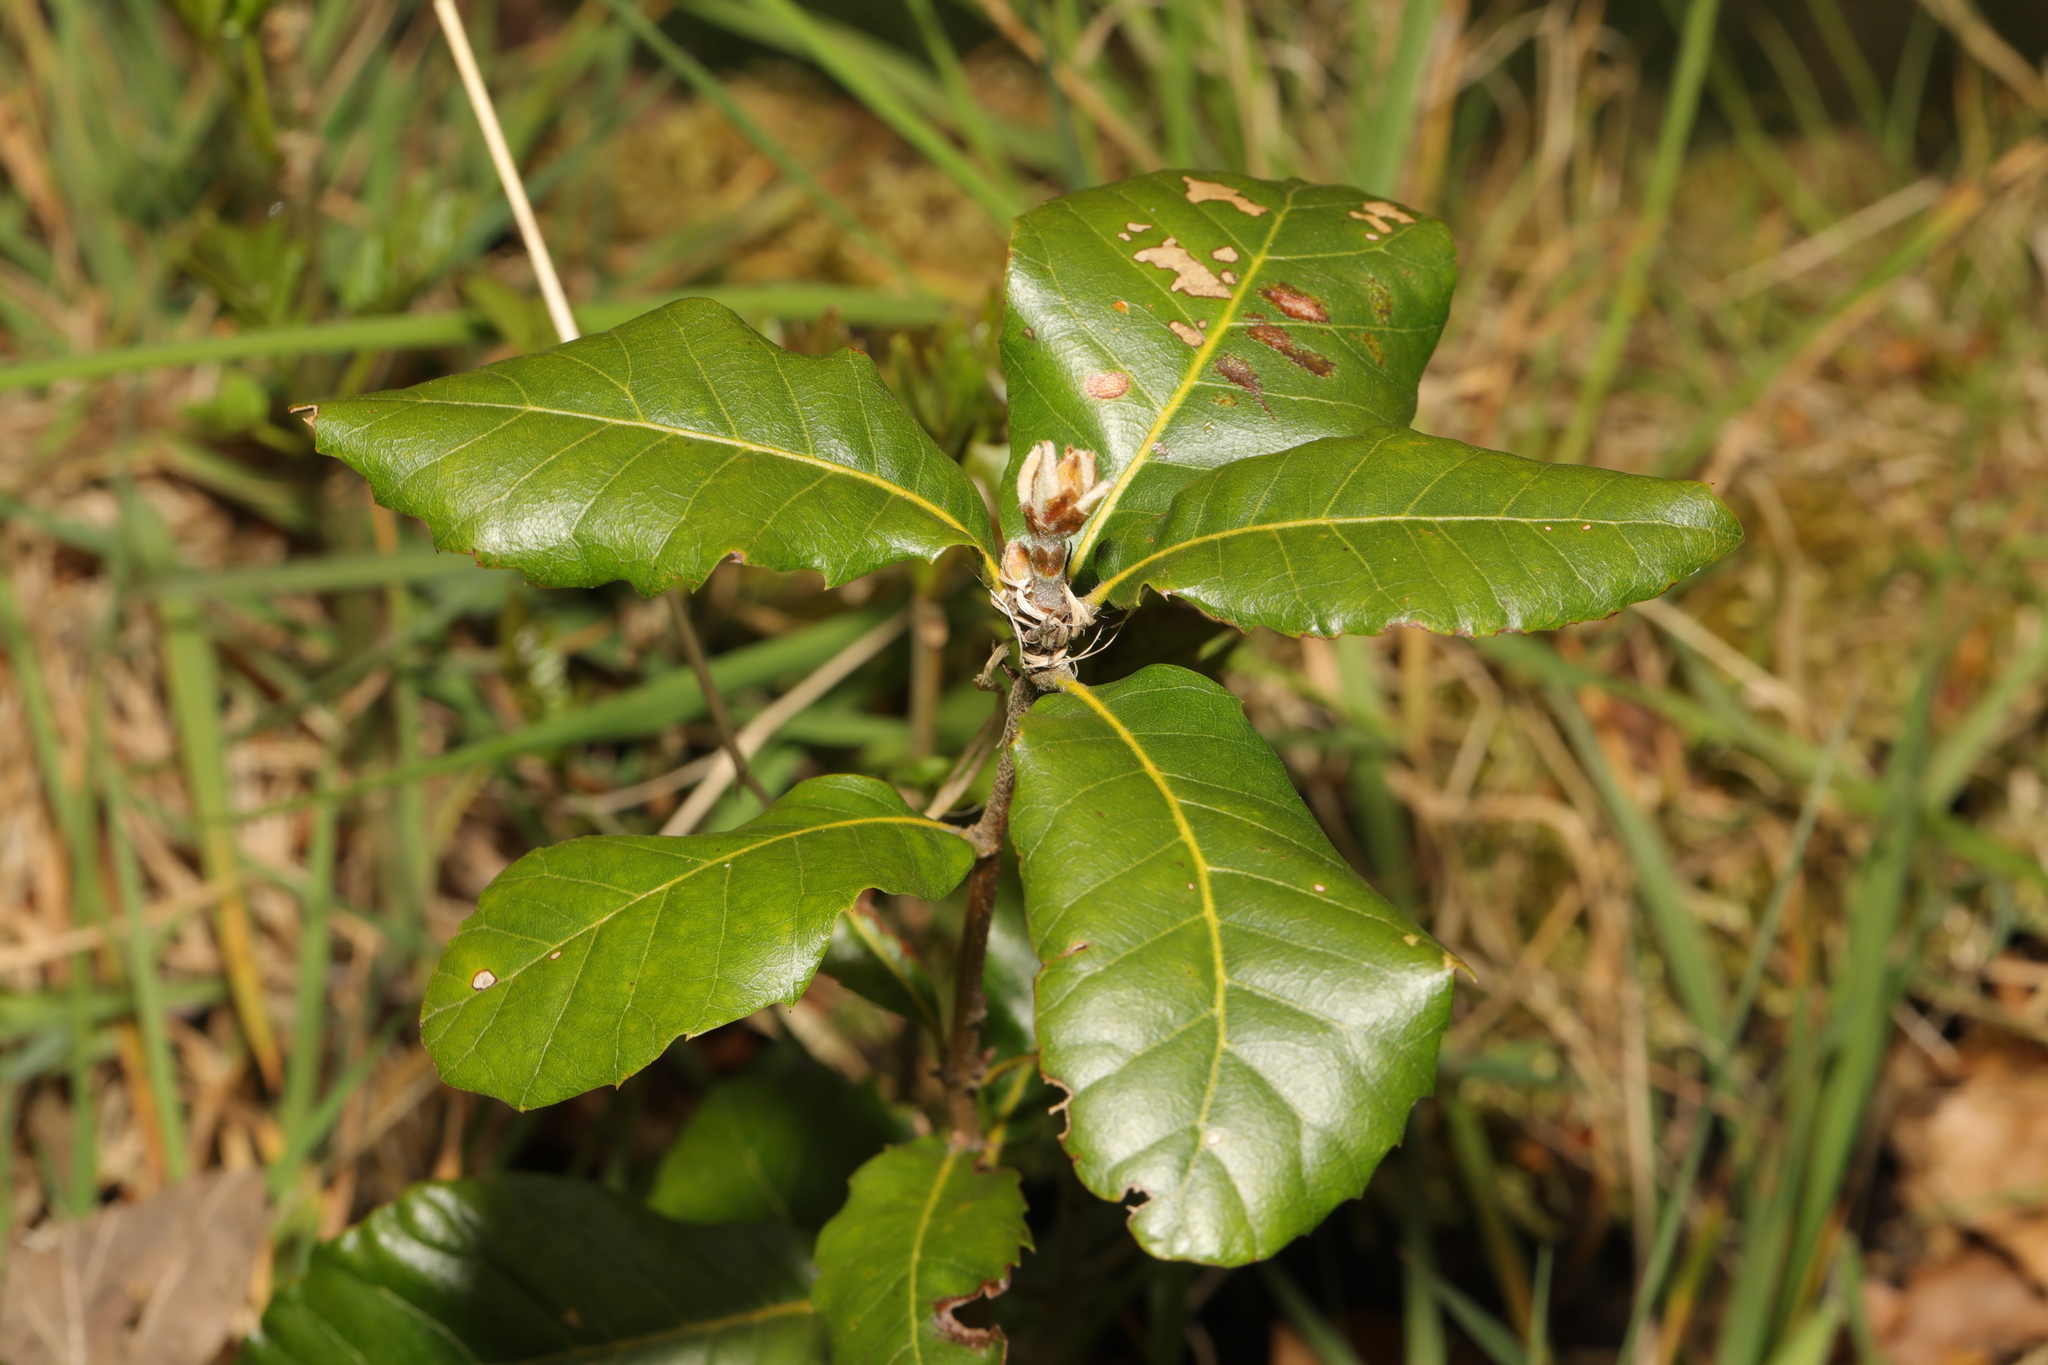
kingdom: Plantae
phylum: Tracheophyta
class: Magnoliopsida
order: Fagales
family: Fagaceae
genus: Quercus
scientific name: Quercus ilex
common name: Evergreen oak
